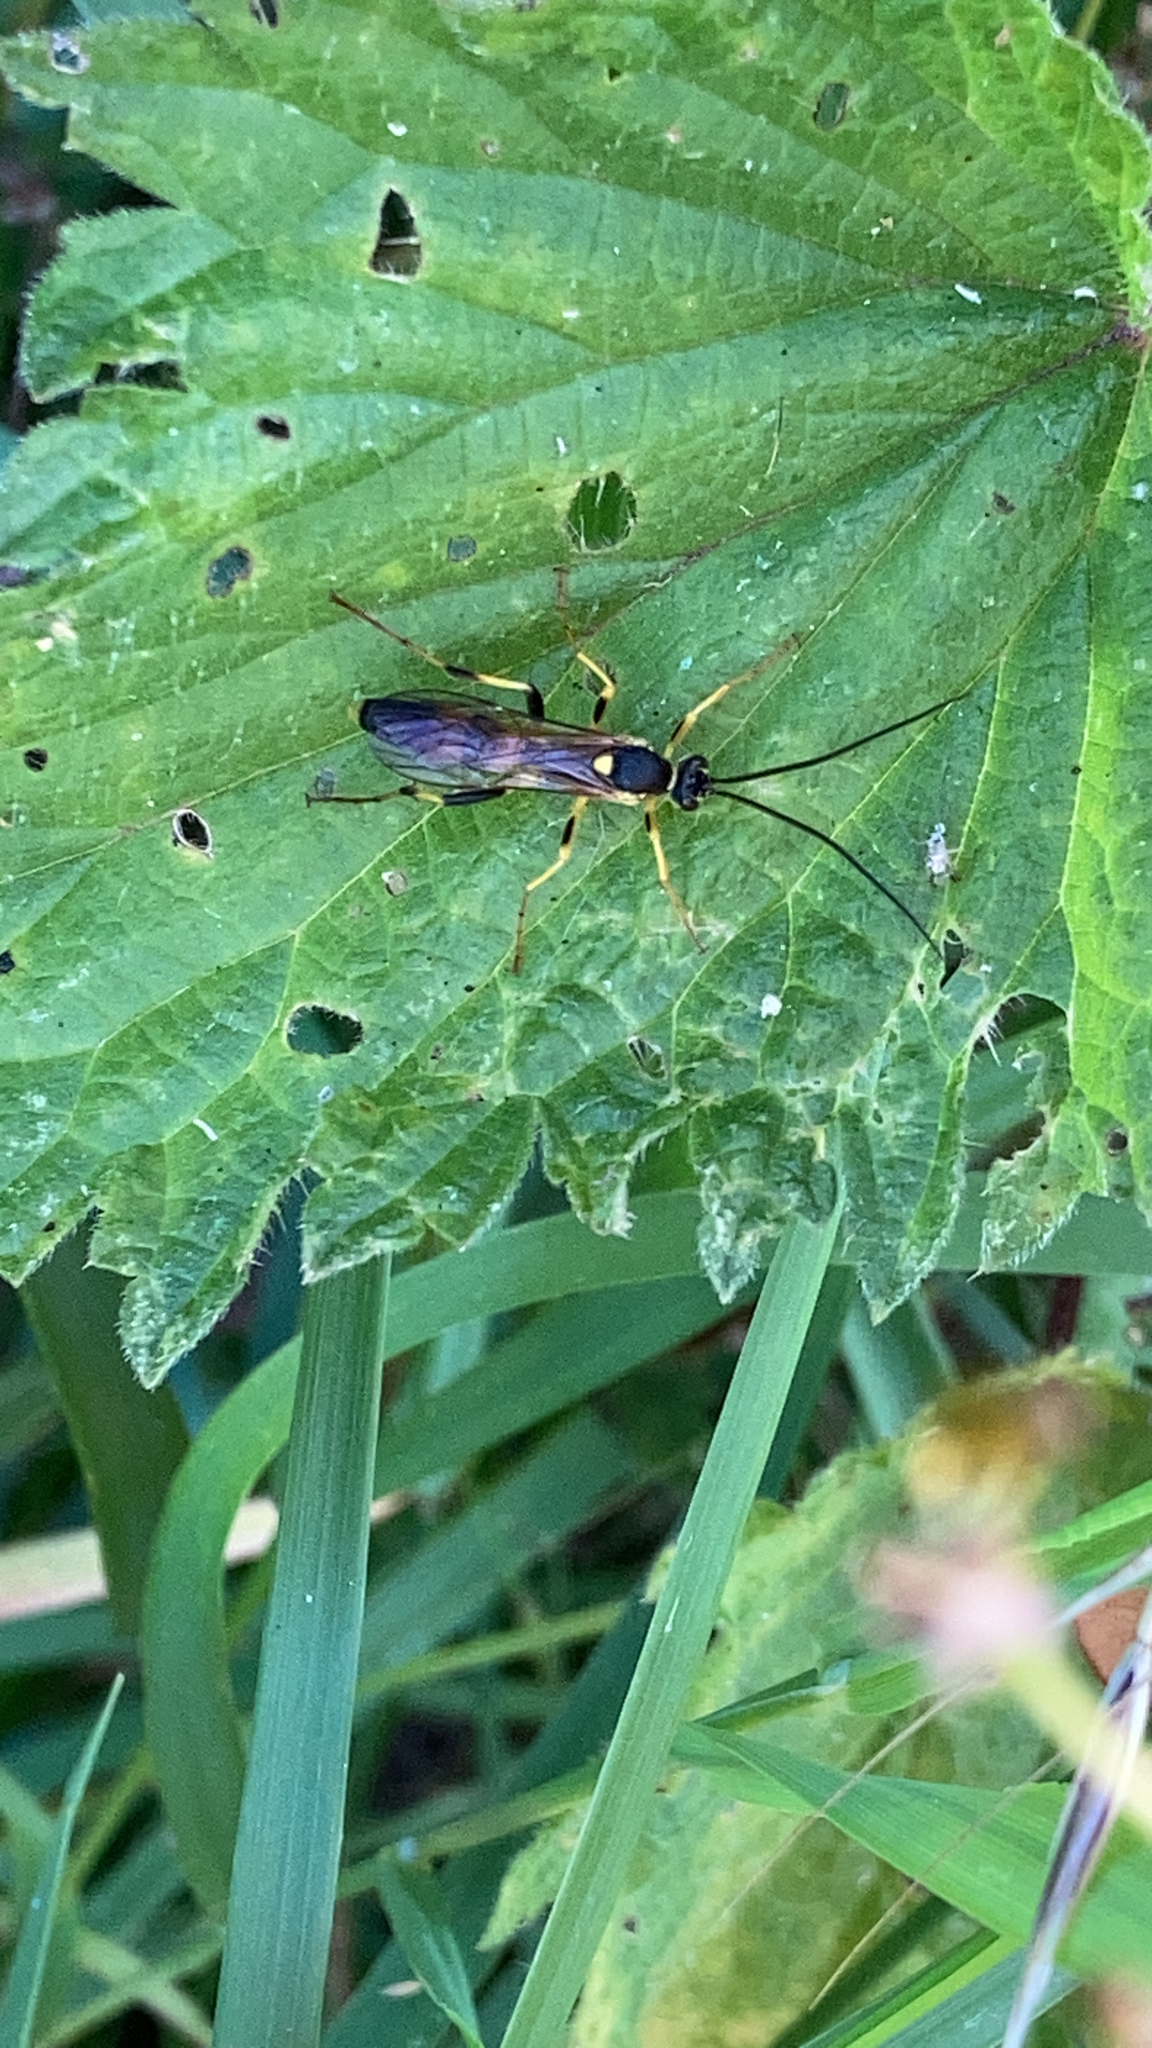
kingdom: Animalia
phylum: Arthropoda
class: Insecta
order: Hymenoptera
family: Ichneumonidae
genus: Amblyteles
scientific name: Amblyteles armatorius
